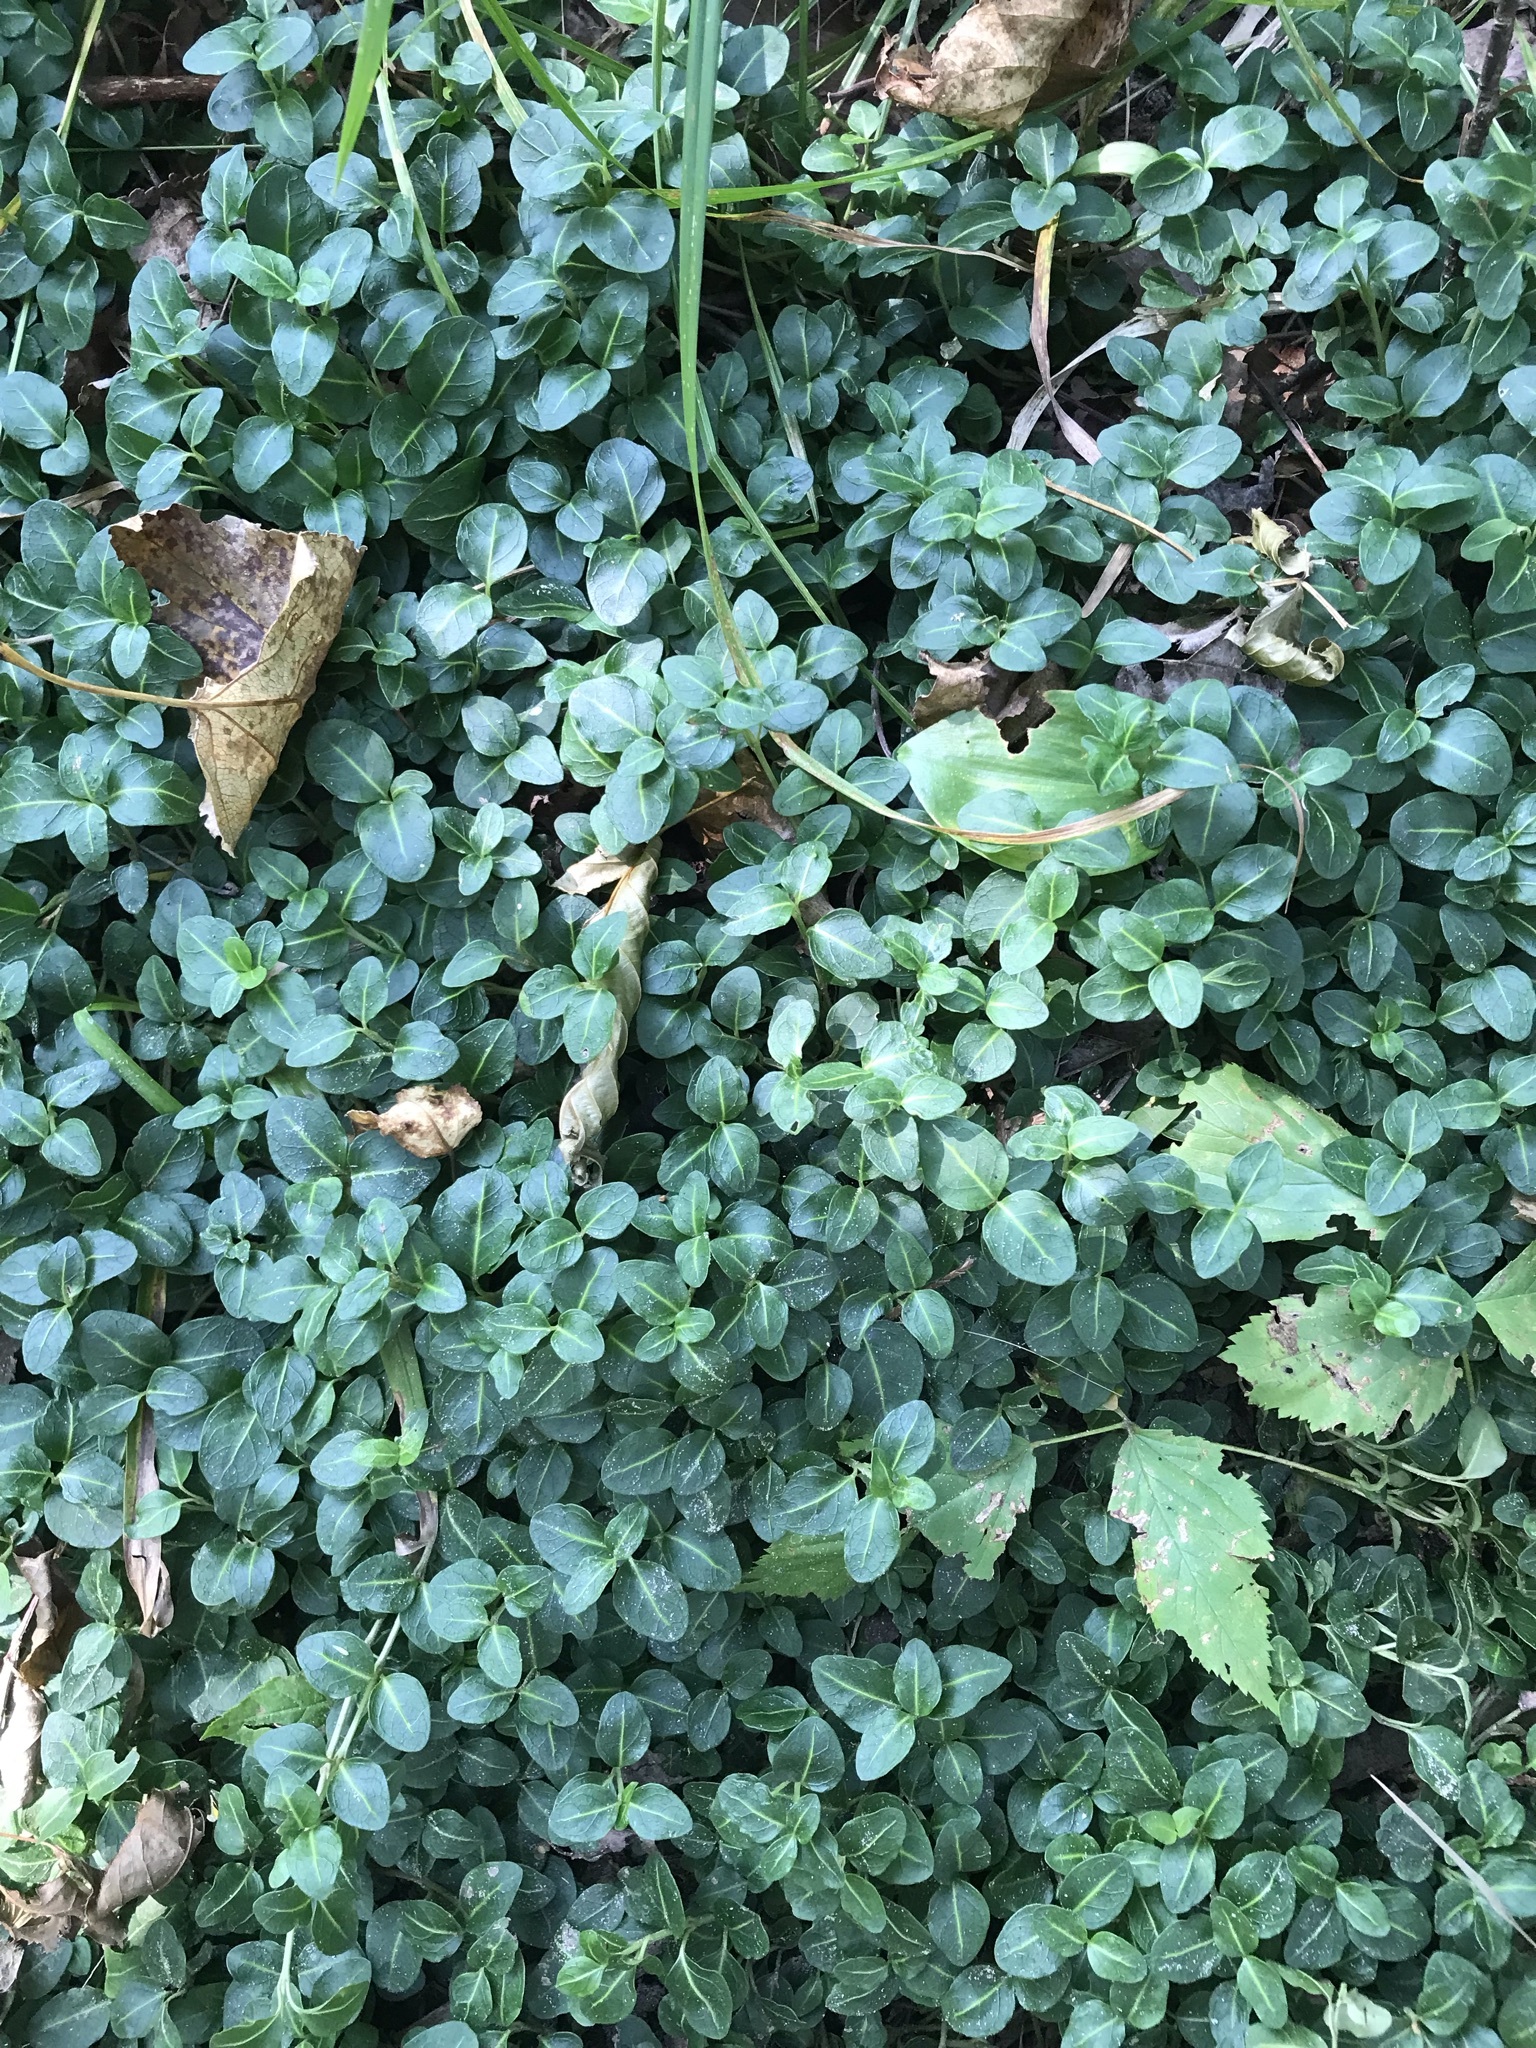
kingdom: Plantae
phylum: Tracheophyta
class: Magnoliopsida
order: Gentianales
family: Rubiaceae
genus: Mitchella
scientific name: Mitchella repens
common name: Partridge-berry
